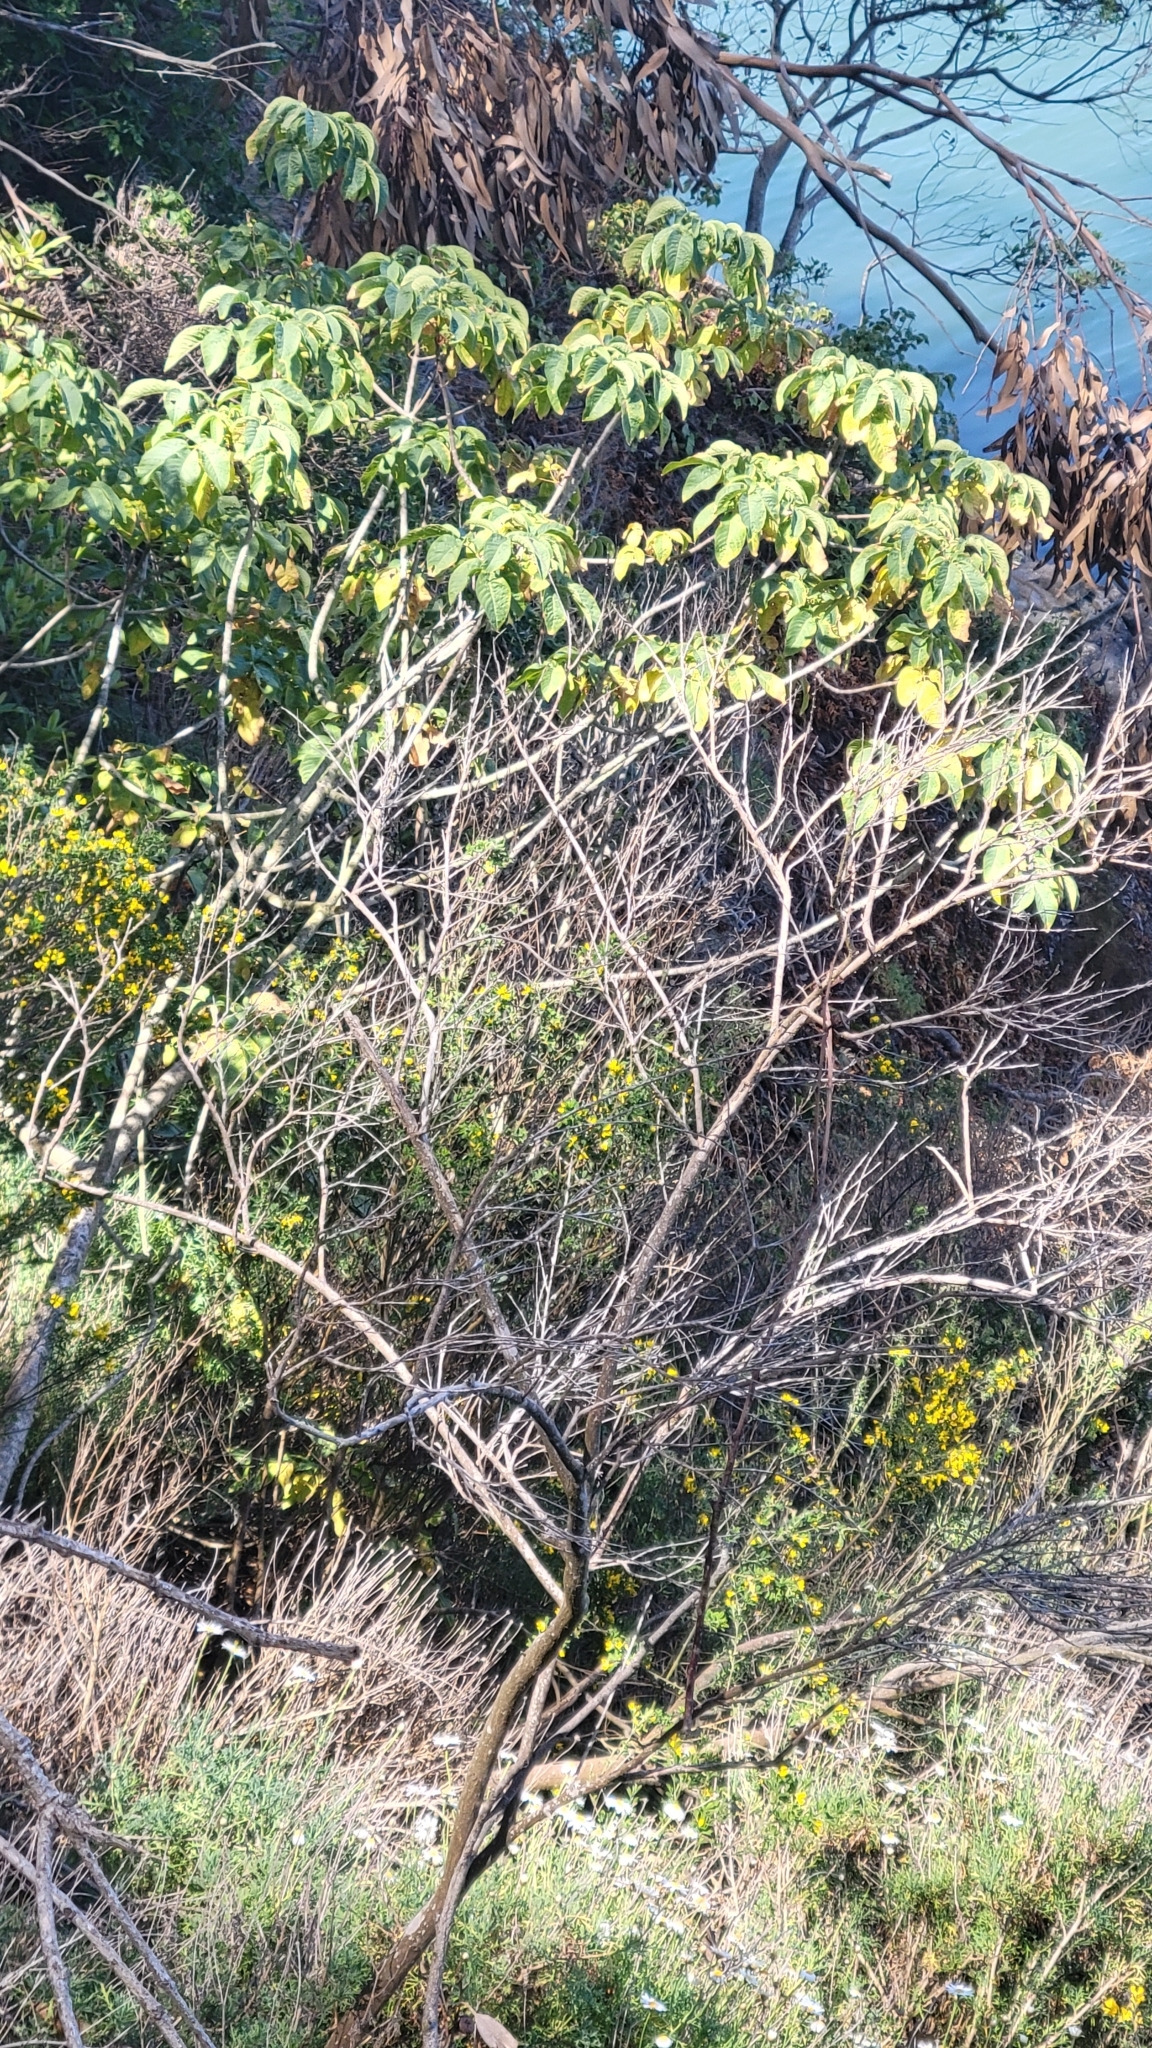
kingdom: Plantae
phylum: Tracheophyta
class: Magnoliopsida
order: Sapindales
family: Sapindaceae
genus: Aesculus
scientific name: Aesculus californica
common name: California buckeye
